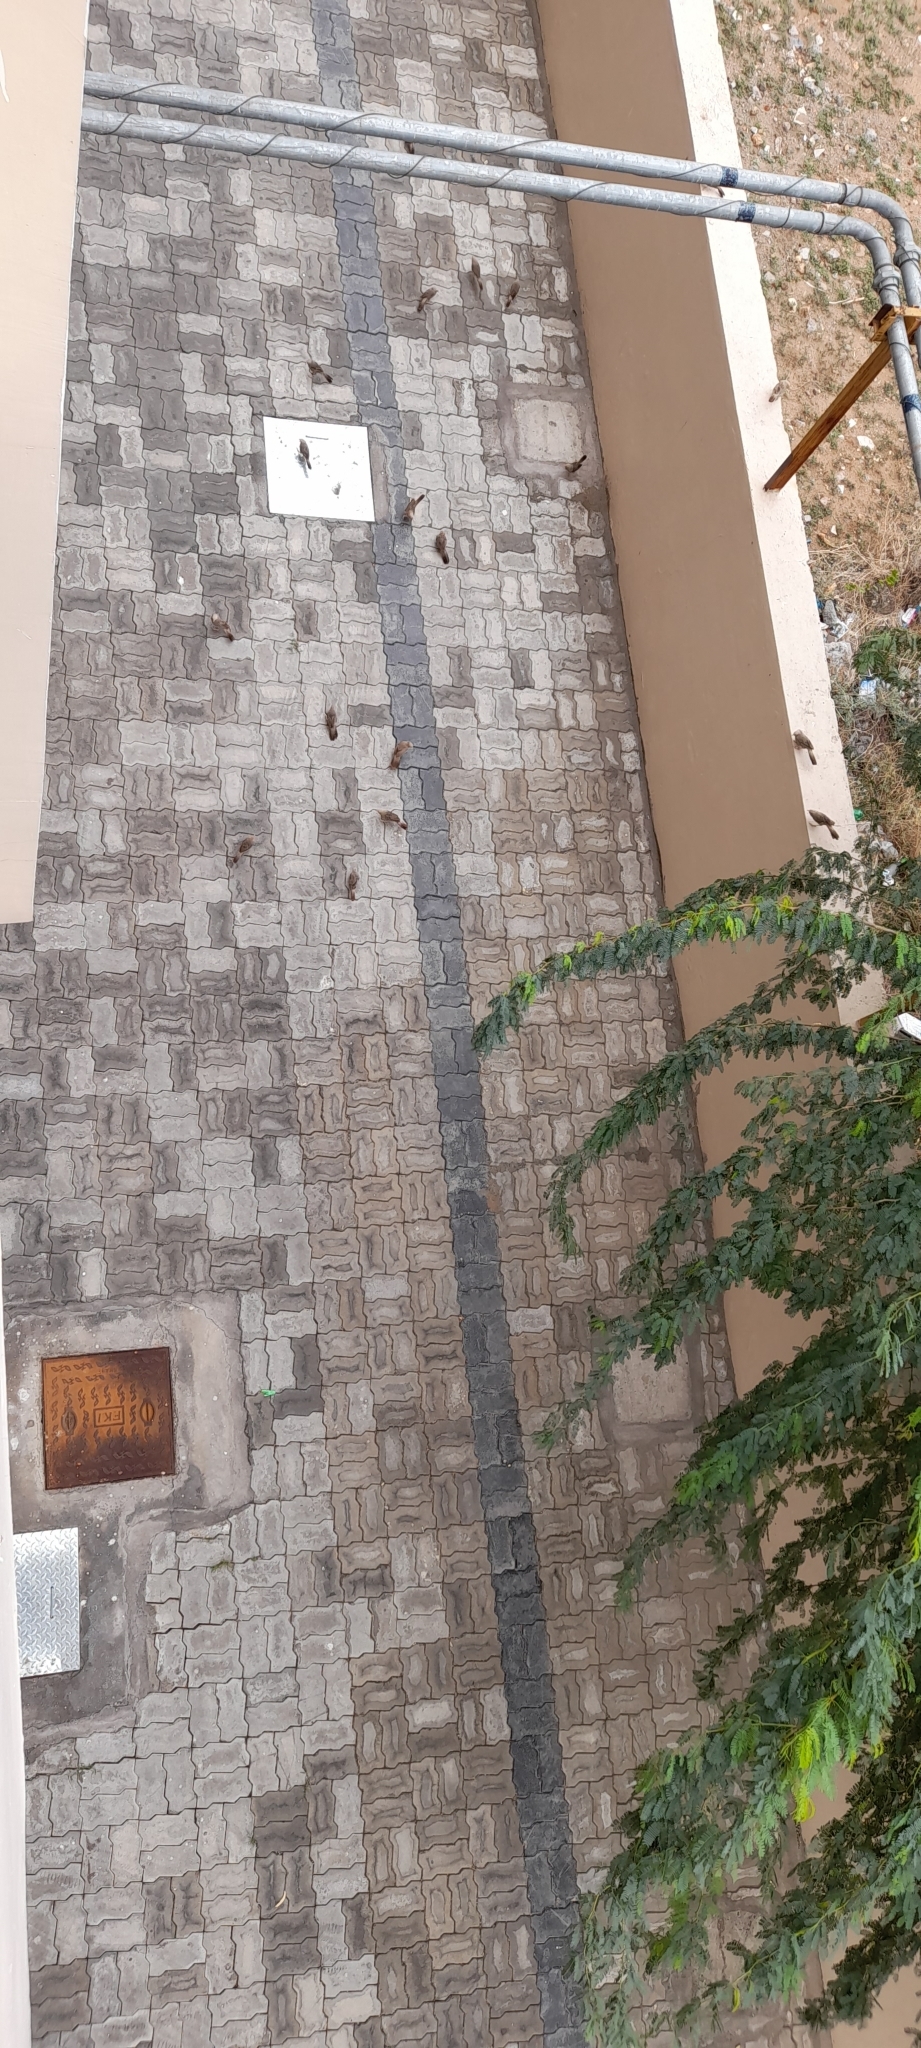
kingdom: Animalia
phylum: Chordata
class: Aves
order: Passeriformes
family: Leiothrichidae
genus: Turdoides
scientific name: Turdoides affinis
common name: Yellow-billed babbler
